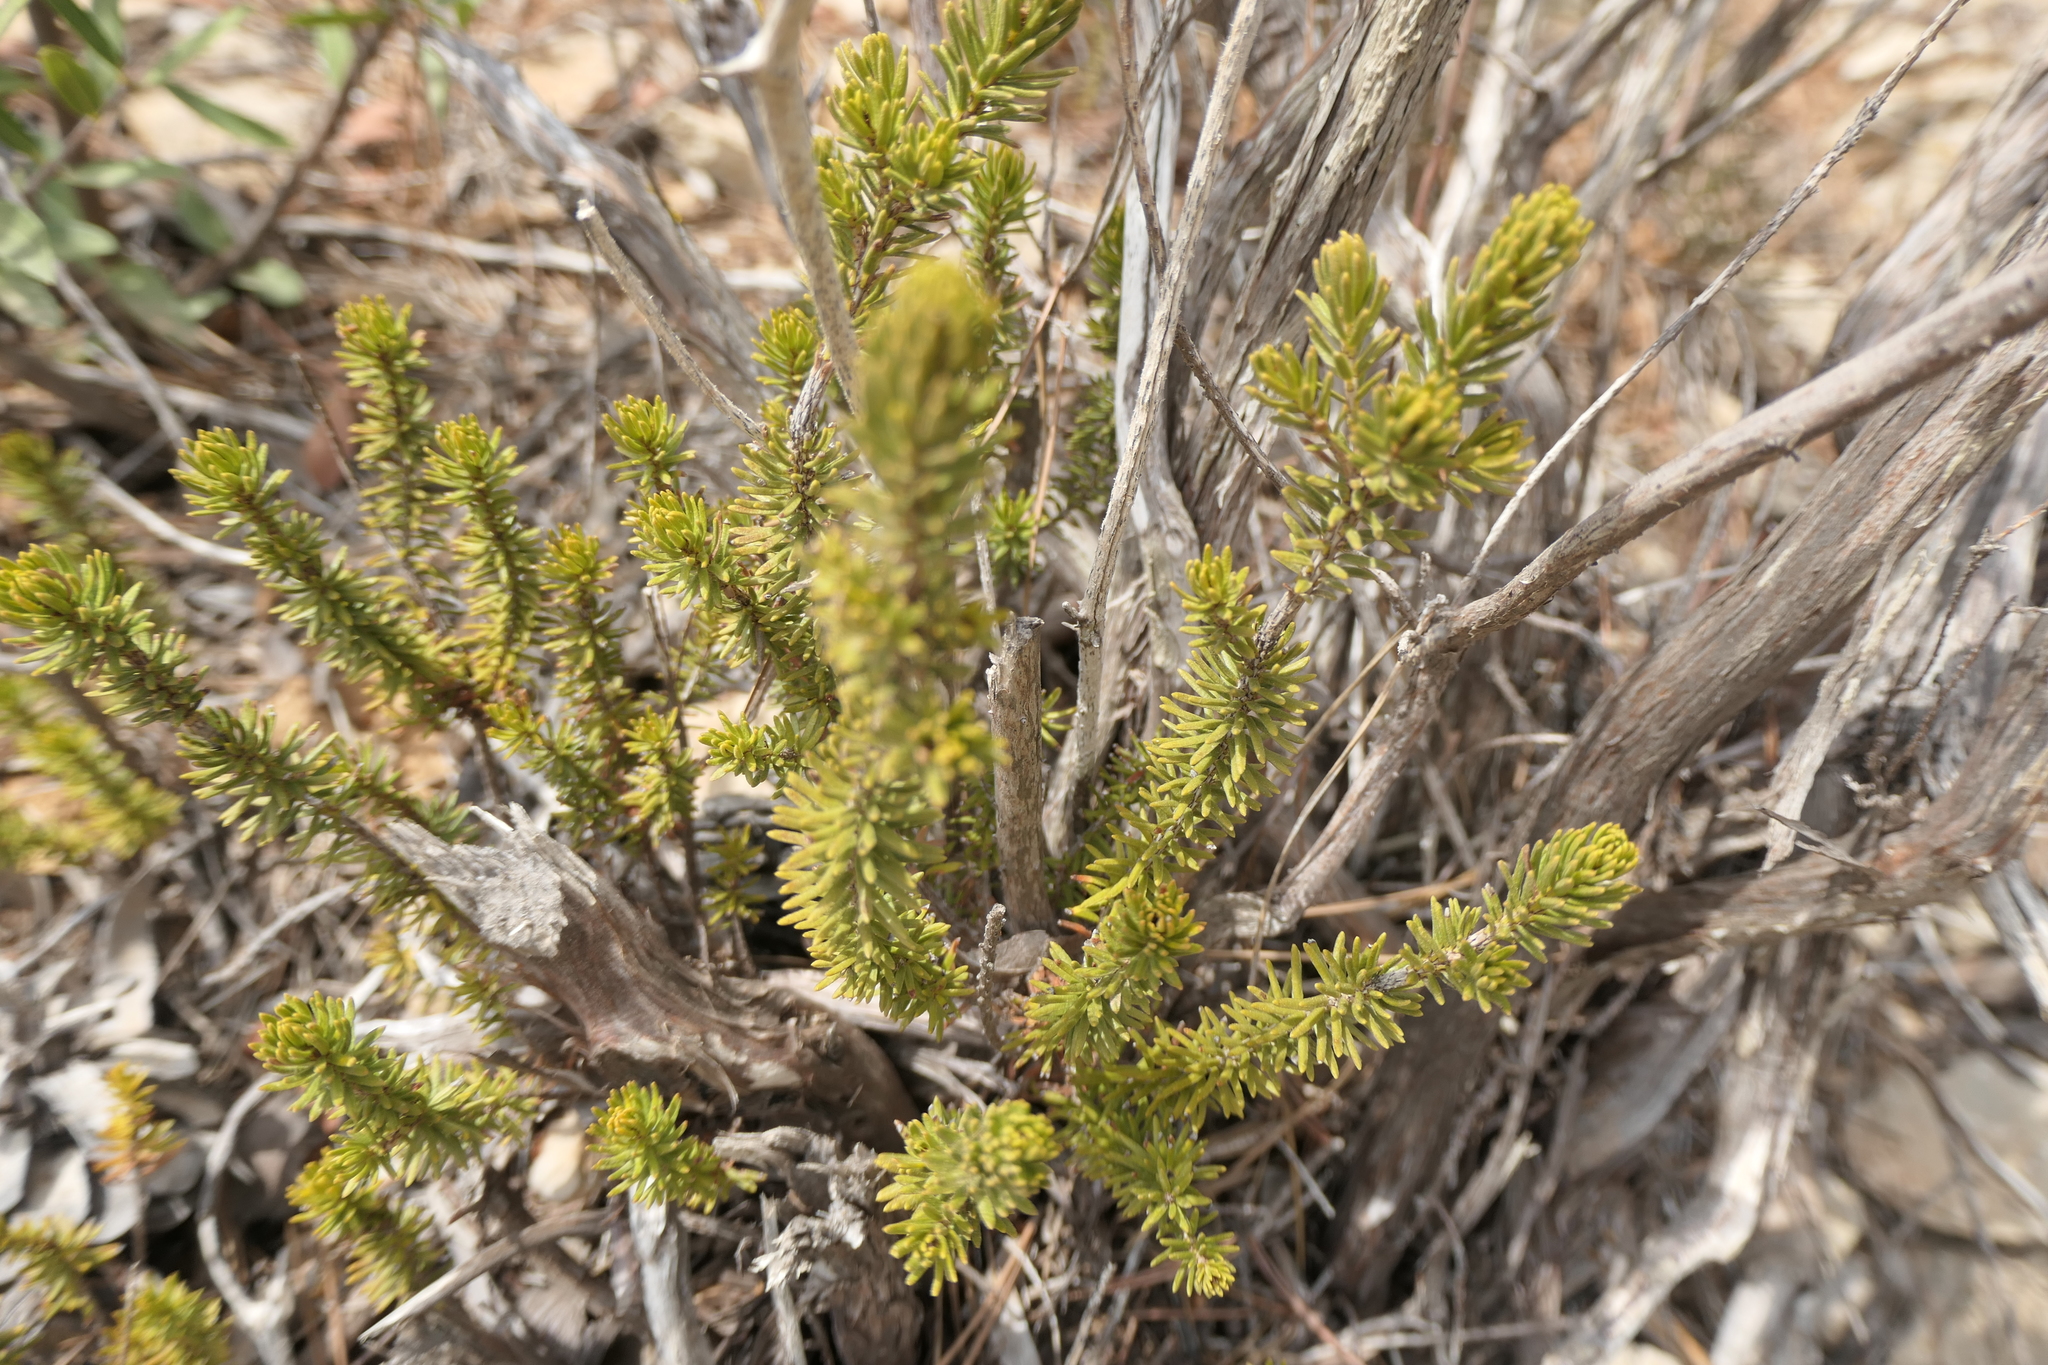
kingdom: Plantae
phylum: Tracheophyta
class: Magnoliopsida
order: Ericales
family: Ericaceae
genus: Erica
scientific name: Erica multiflora
